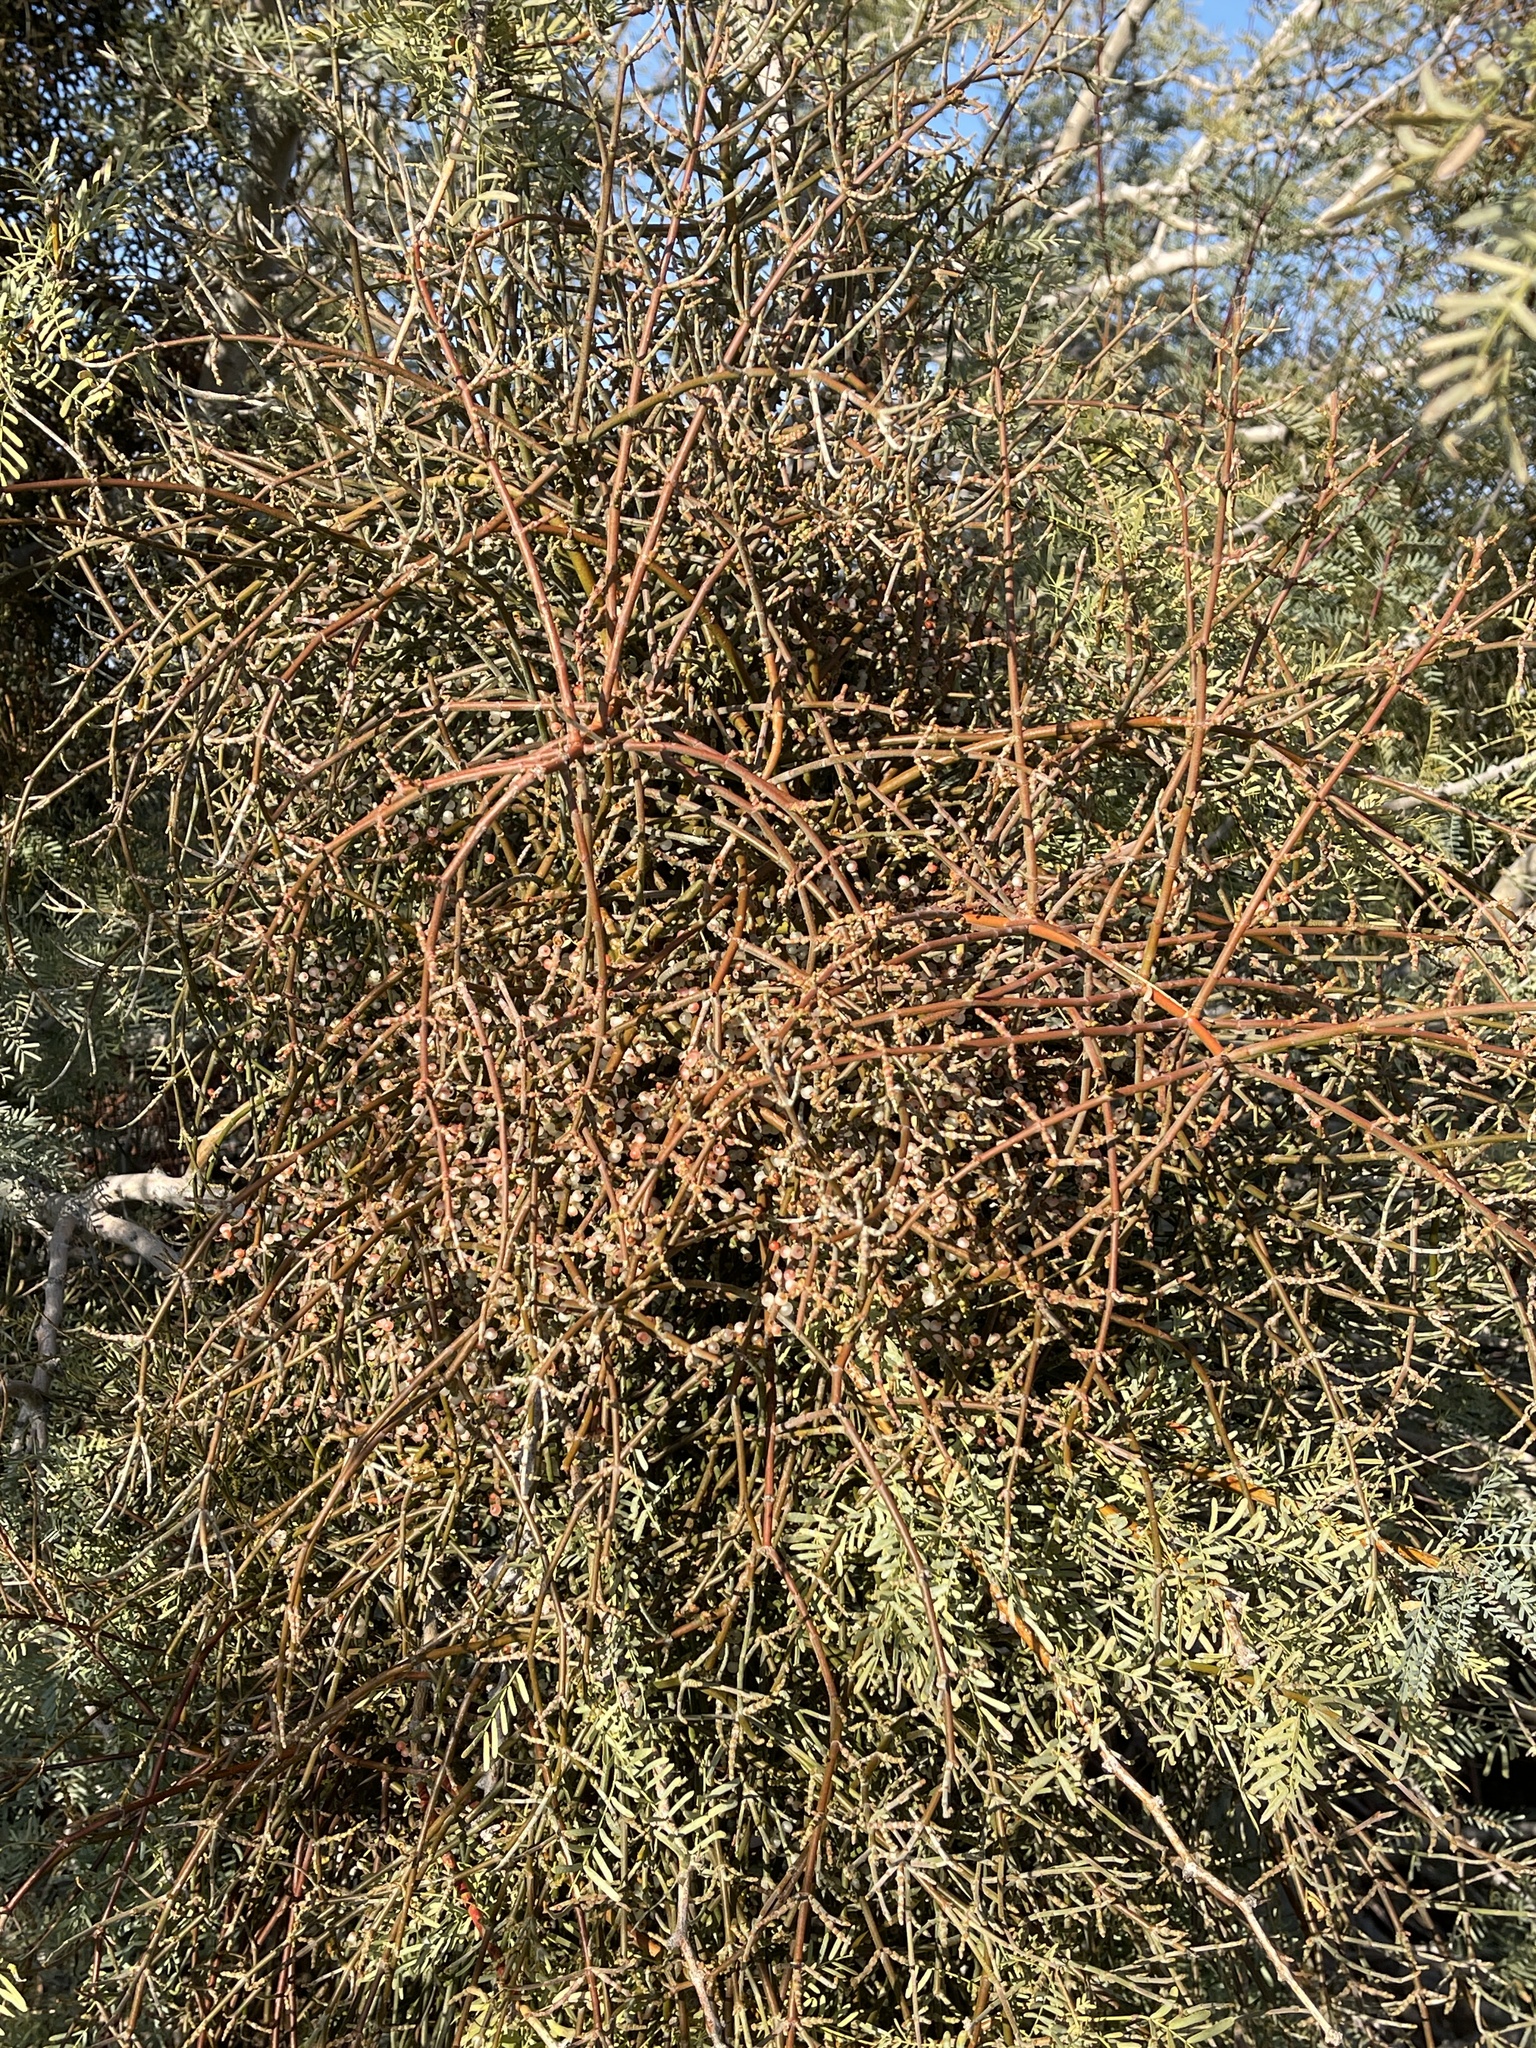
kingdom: Plantae
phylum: Tracheophyta
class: Magnoliopsida
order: Santalales
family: Viscaceae
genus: Phoradendron
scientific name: Phoradendron californicum
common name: Acacia mistletoe
